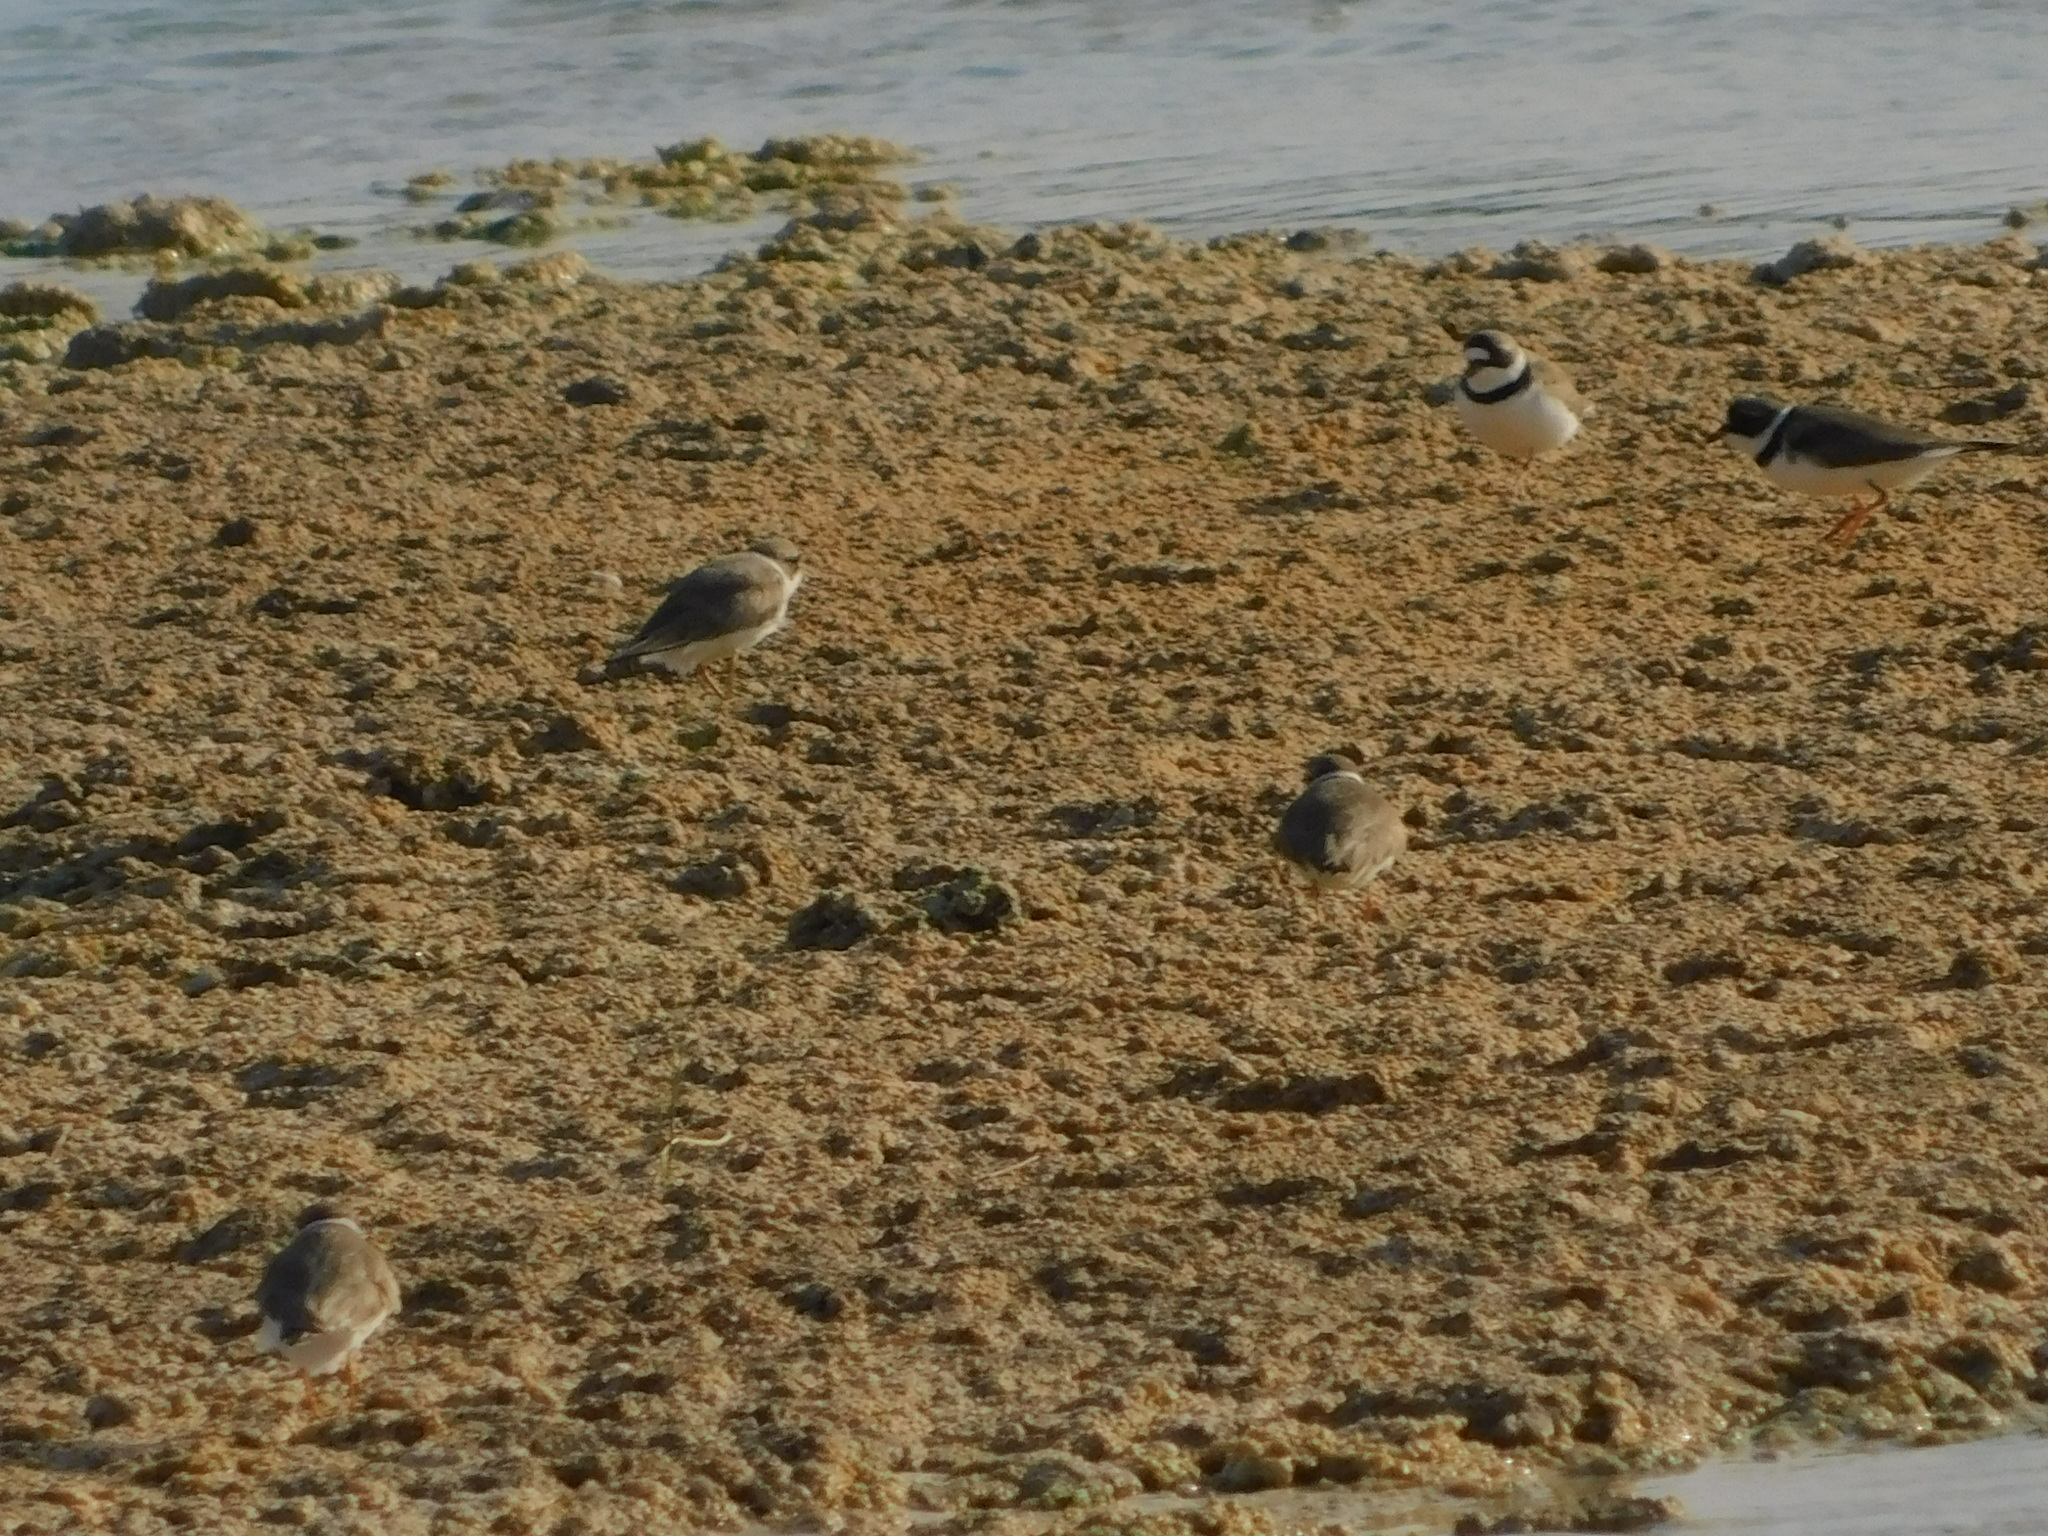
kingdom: Animalia
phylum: Chordata
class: Aves
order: Charadriiformes
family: Charadriidae
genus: Charadrius
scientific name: Charadrius semipalmatus
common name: Semipalmated plover
